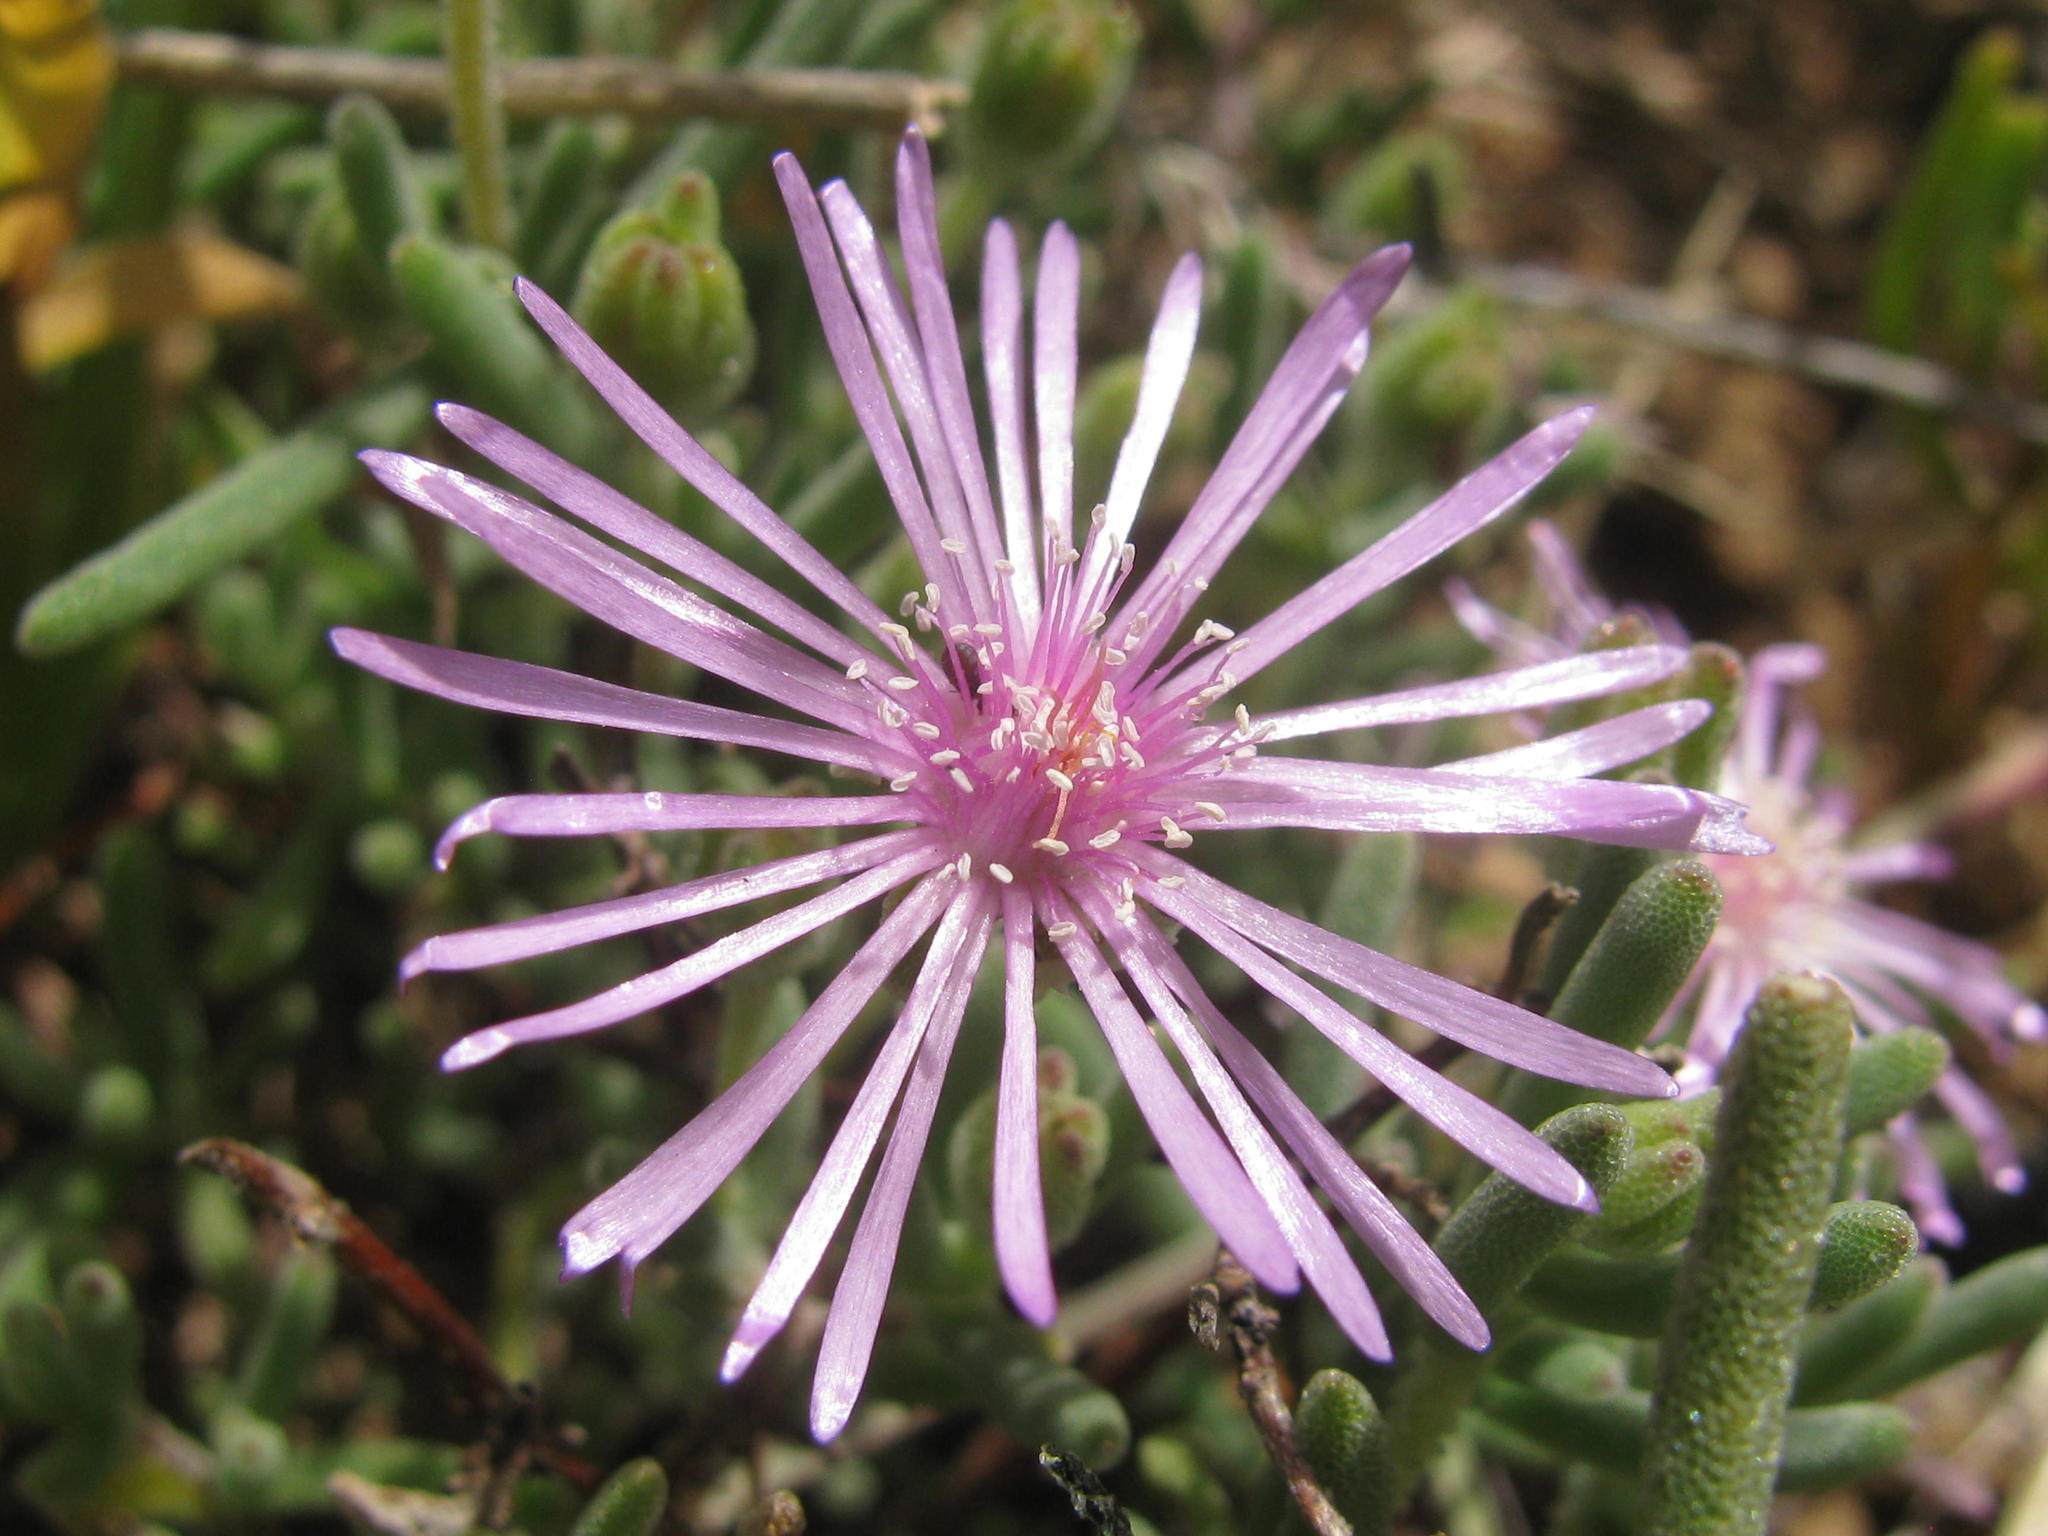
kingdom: Plantae
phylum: Tracheophyta
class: Magnoliopsida
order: Caryophyllales
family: Aizoaceae
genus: Drosanthemum
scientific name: Drosanthemum worcesterense
